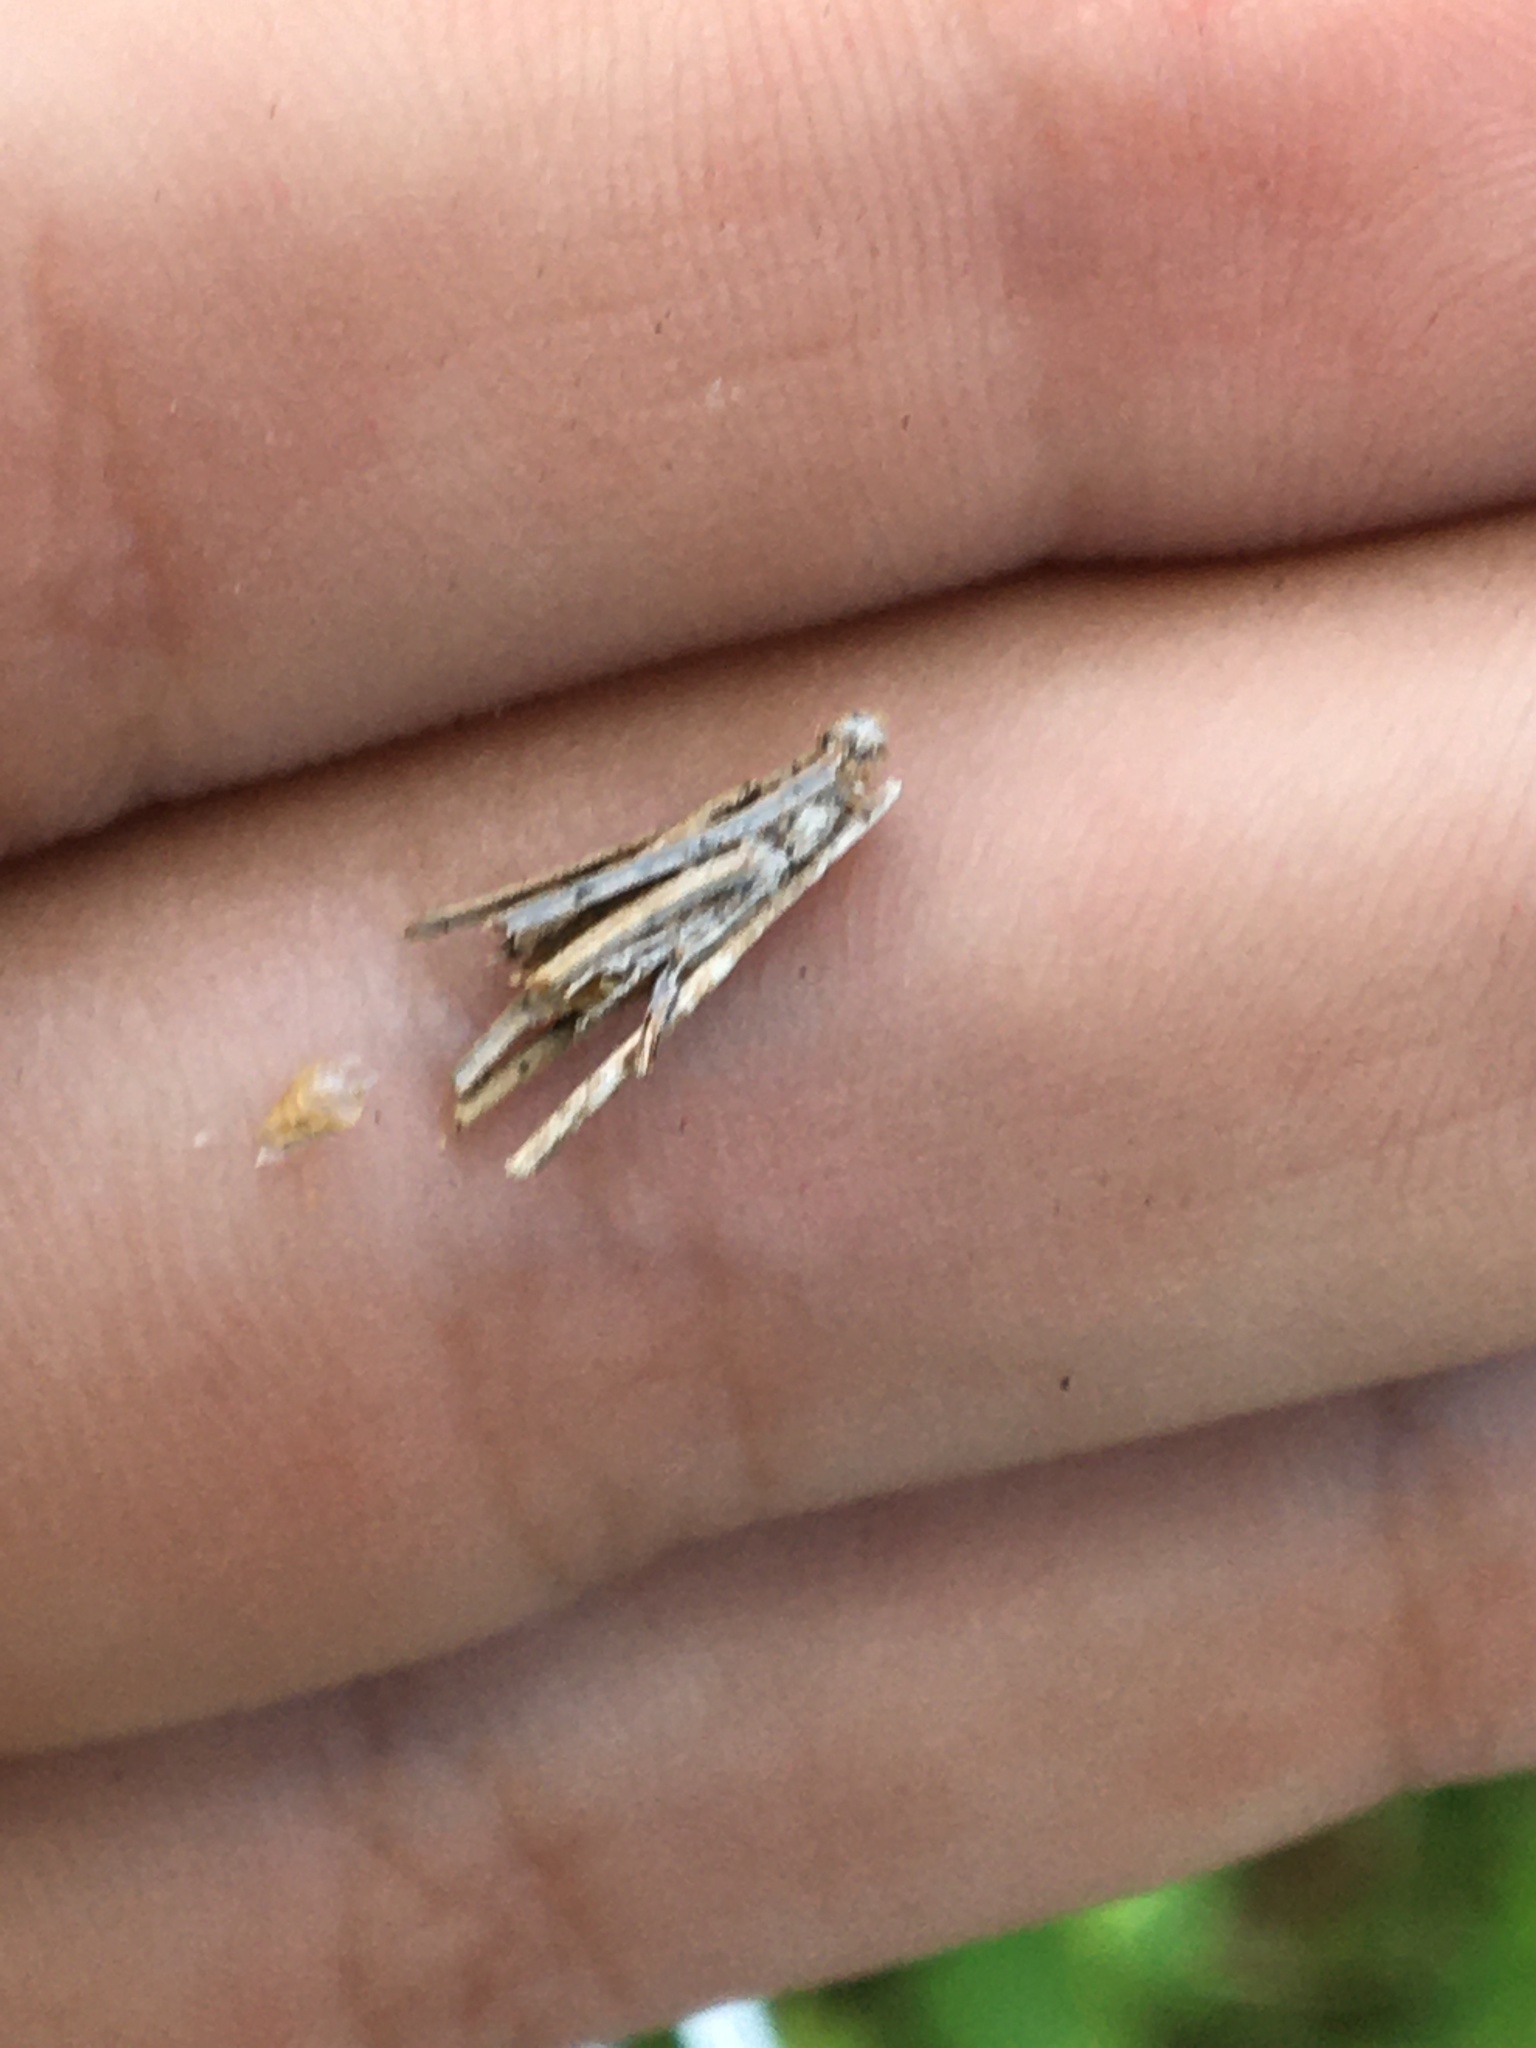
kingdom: Animalia
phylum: Arthropoda
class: Insecta
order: Lepidoptera
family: Psychidae
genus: Psyche
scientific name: Psyche casta
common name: Common sweep
